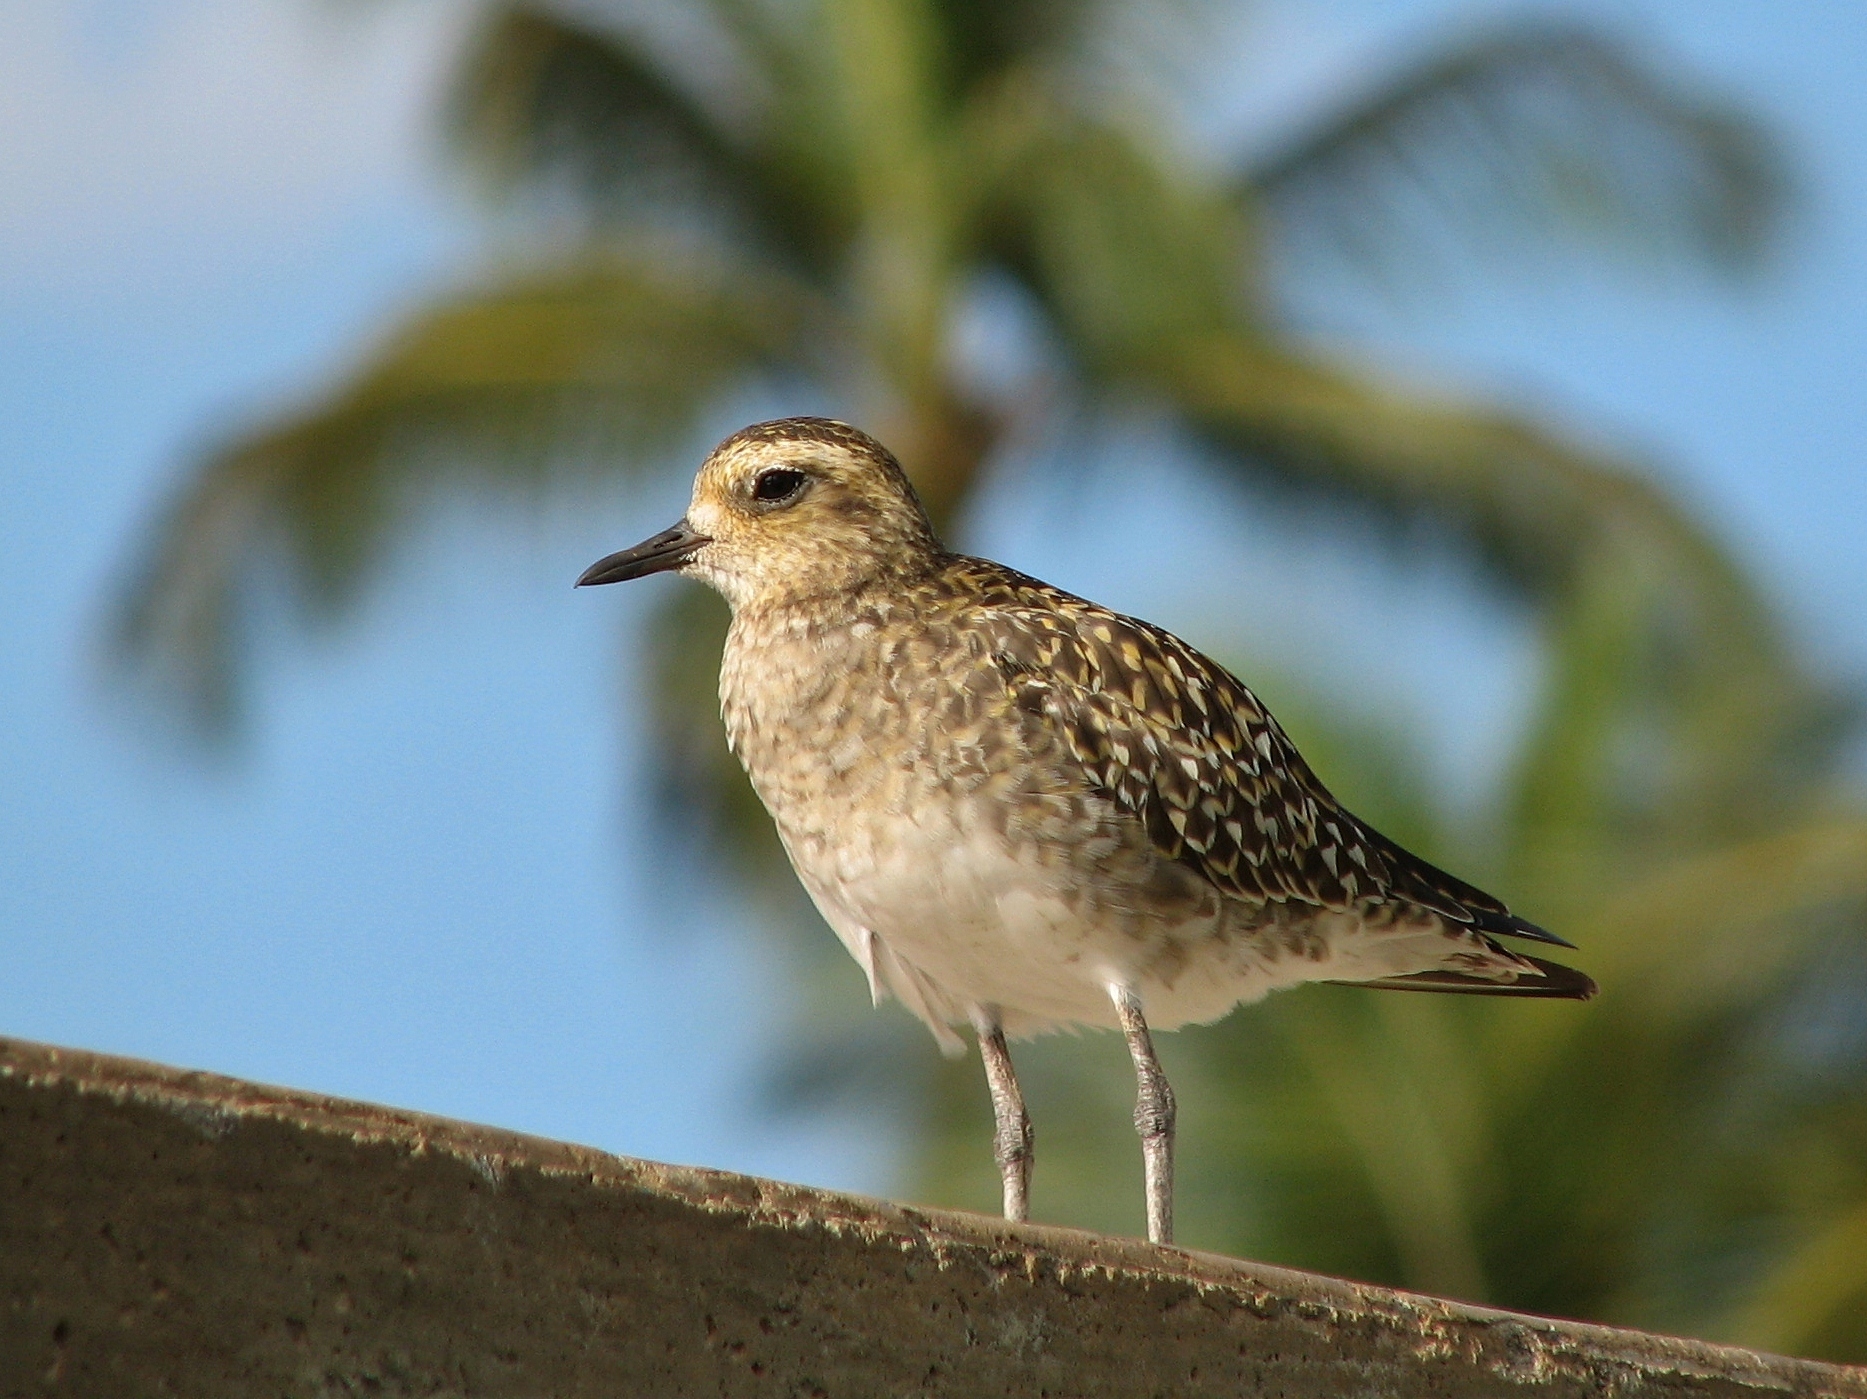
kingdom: Animalia
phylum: Chordata
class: Aves
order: Charadriiformes
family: Charadriidae
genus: Pluvialis
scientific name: Pluvialis fulva
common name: Pacific golden plover
